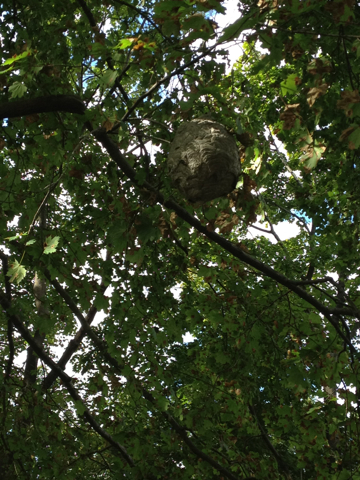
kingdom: Animalia
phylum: Arthropoda
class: Insecta
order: Hymenoptera
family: Vespidae
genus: Dolichovespula
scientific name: Dolichovespula maculata
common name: Bald-faced hornet
